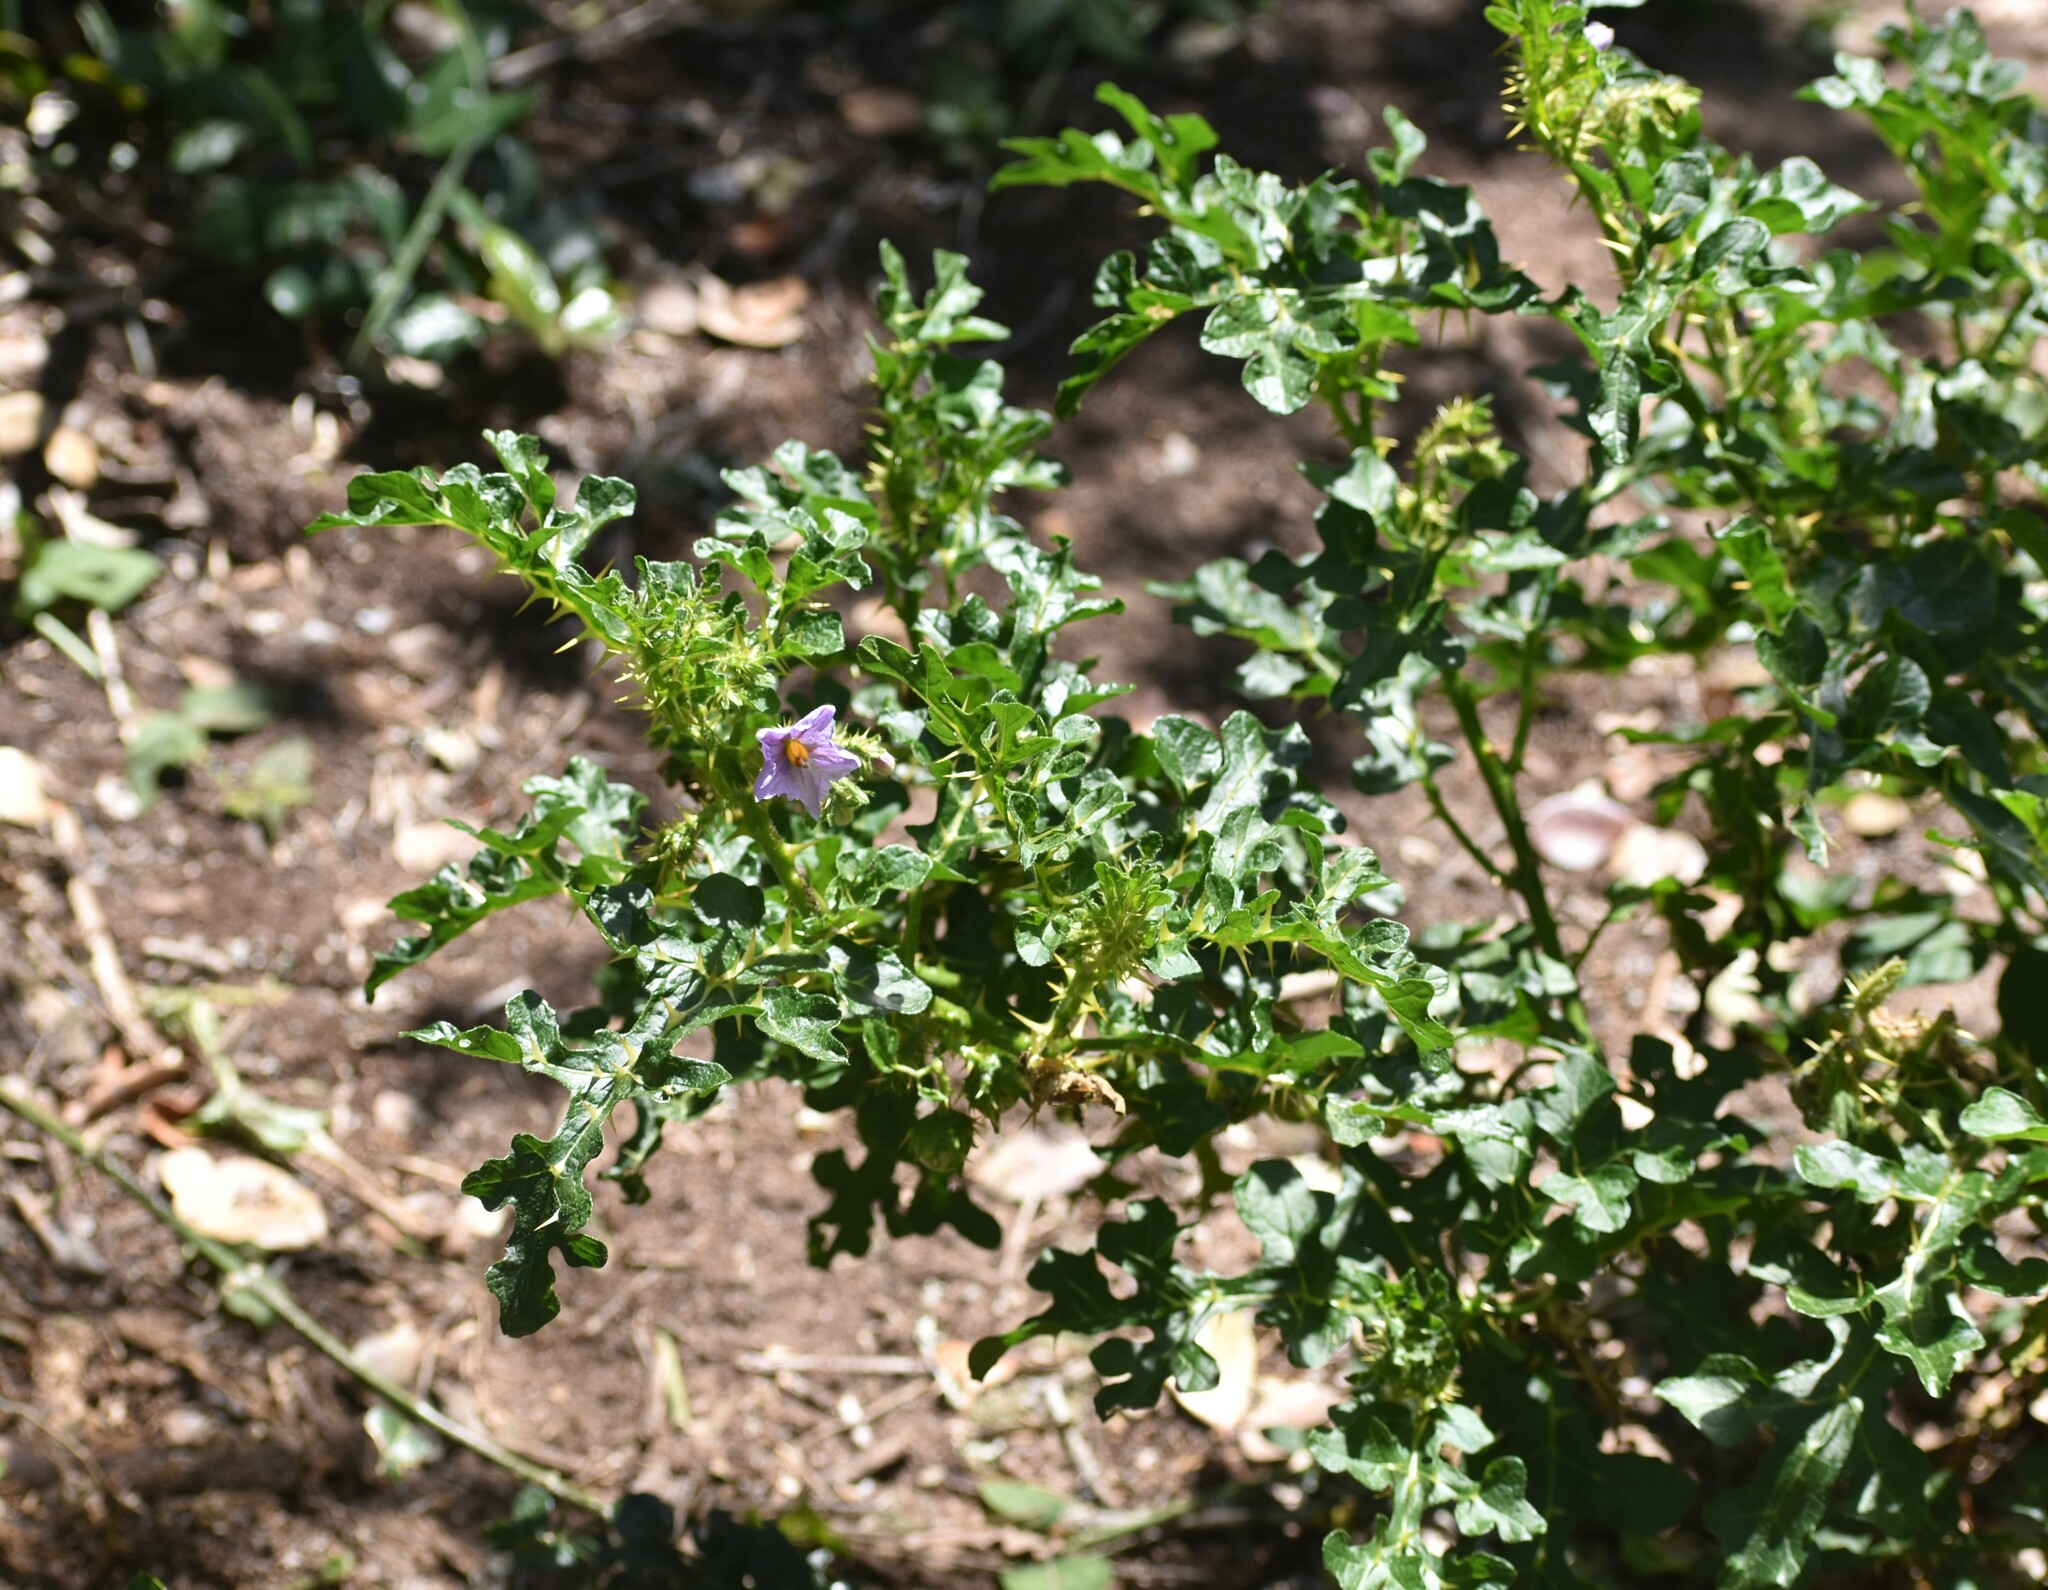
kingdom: Plantae
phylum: Tracheophyta
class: Magnoliopsida
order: Solanales
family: Solanaceae
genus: Solanum
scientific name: Solanum linnaeanum
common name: Nightshade
